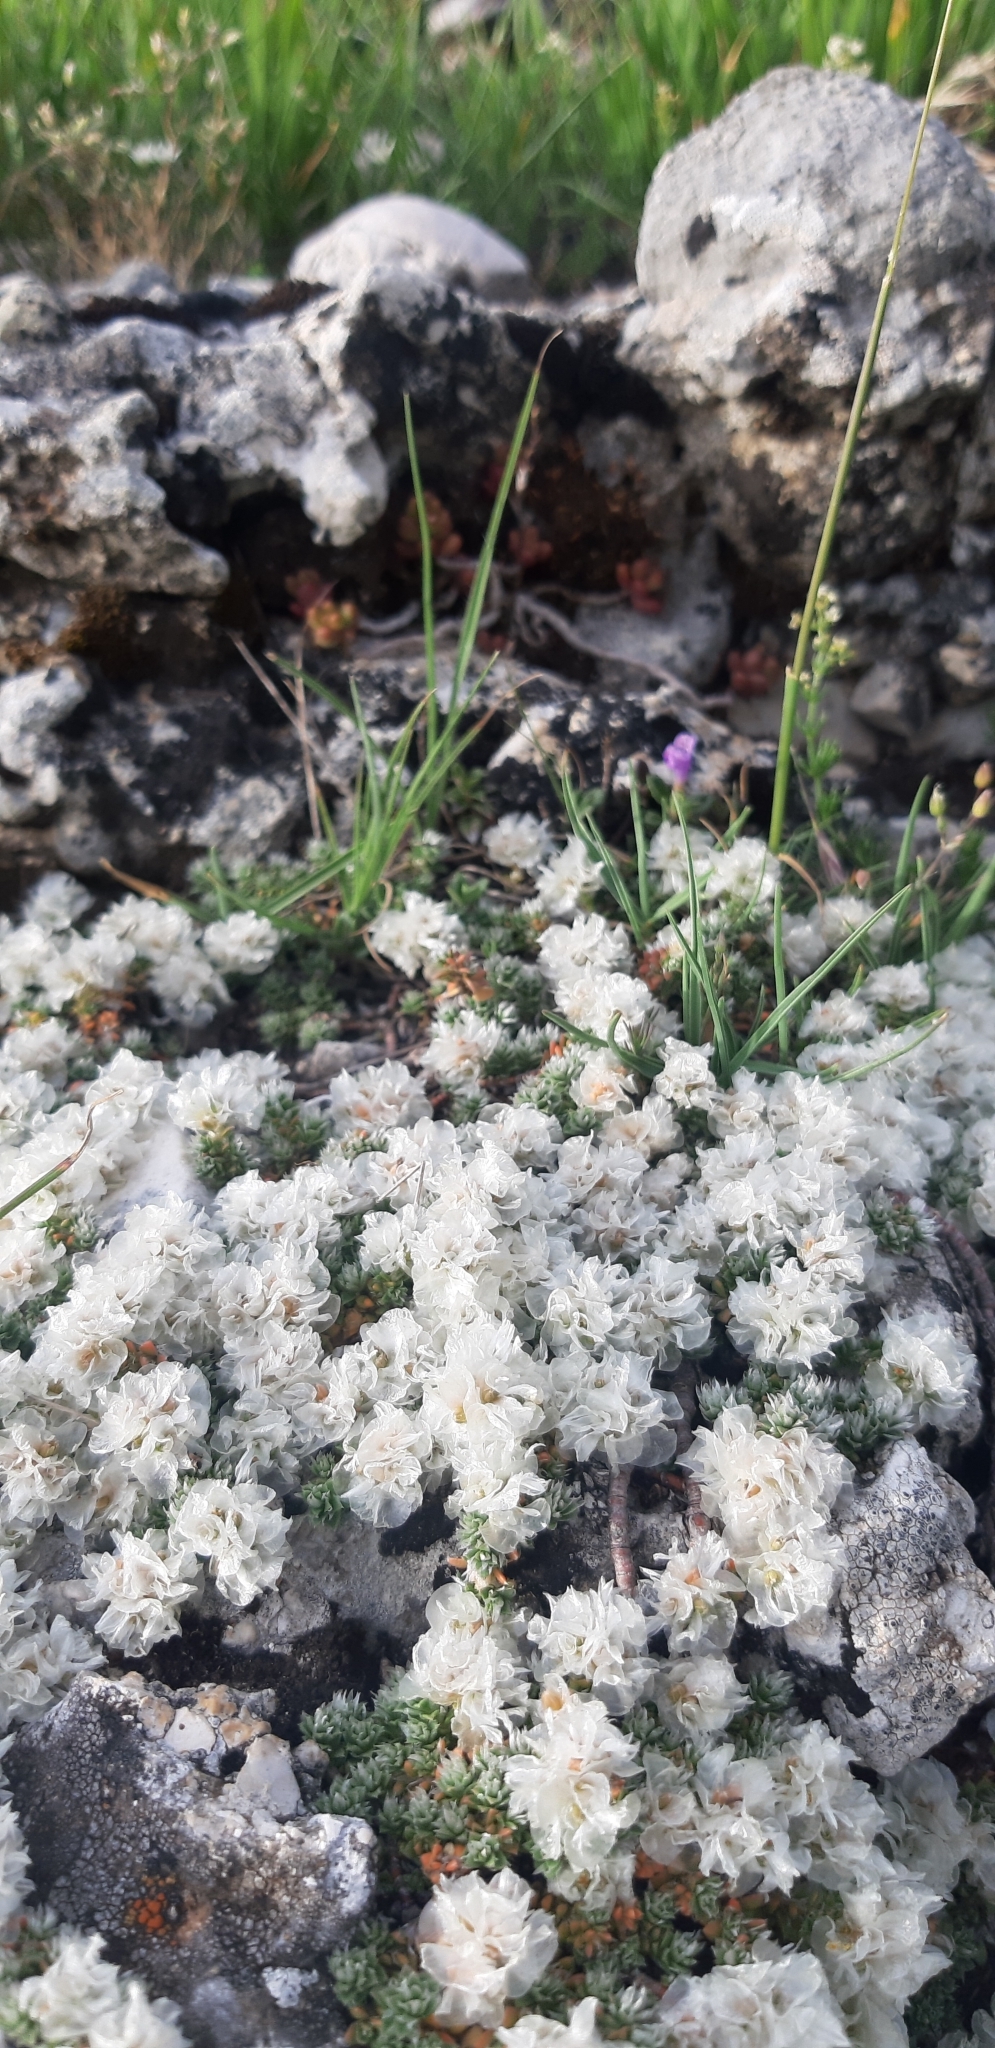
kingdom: Plantae
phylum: Tracheophyta
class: Magnoliopsida
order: Caryophyllales
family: Caryophyllaceae
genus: Paronychia
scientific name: Paronychia kapela
